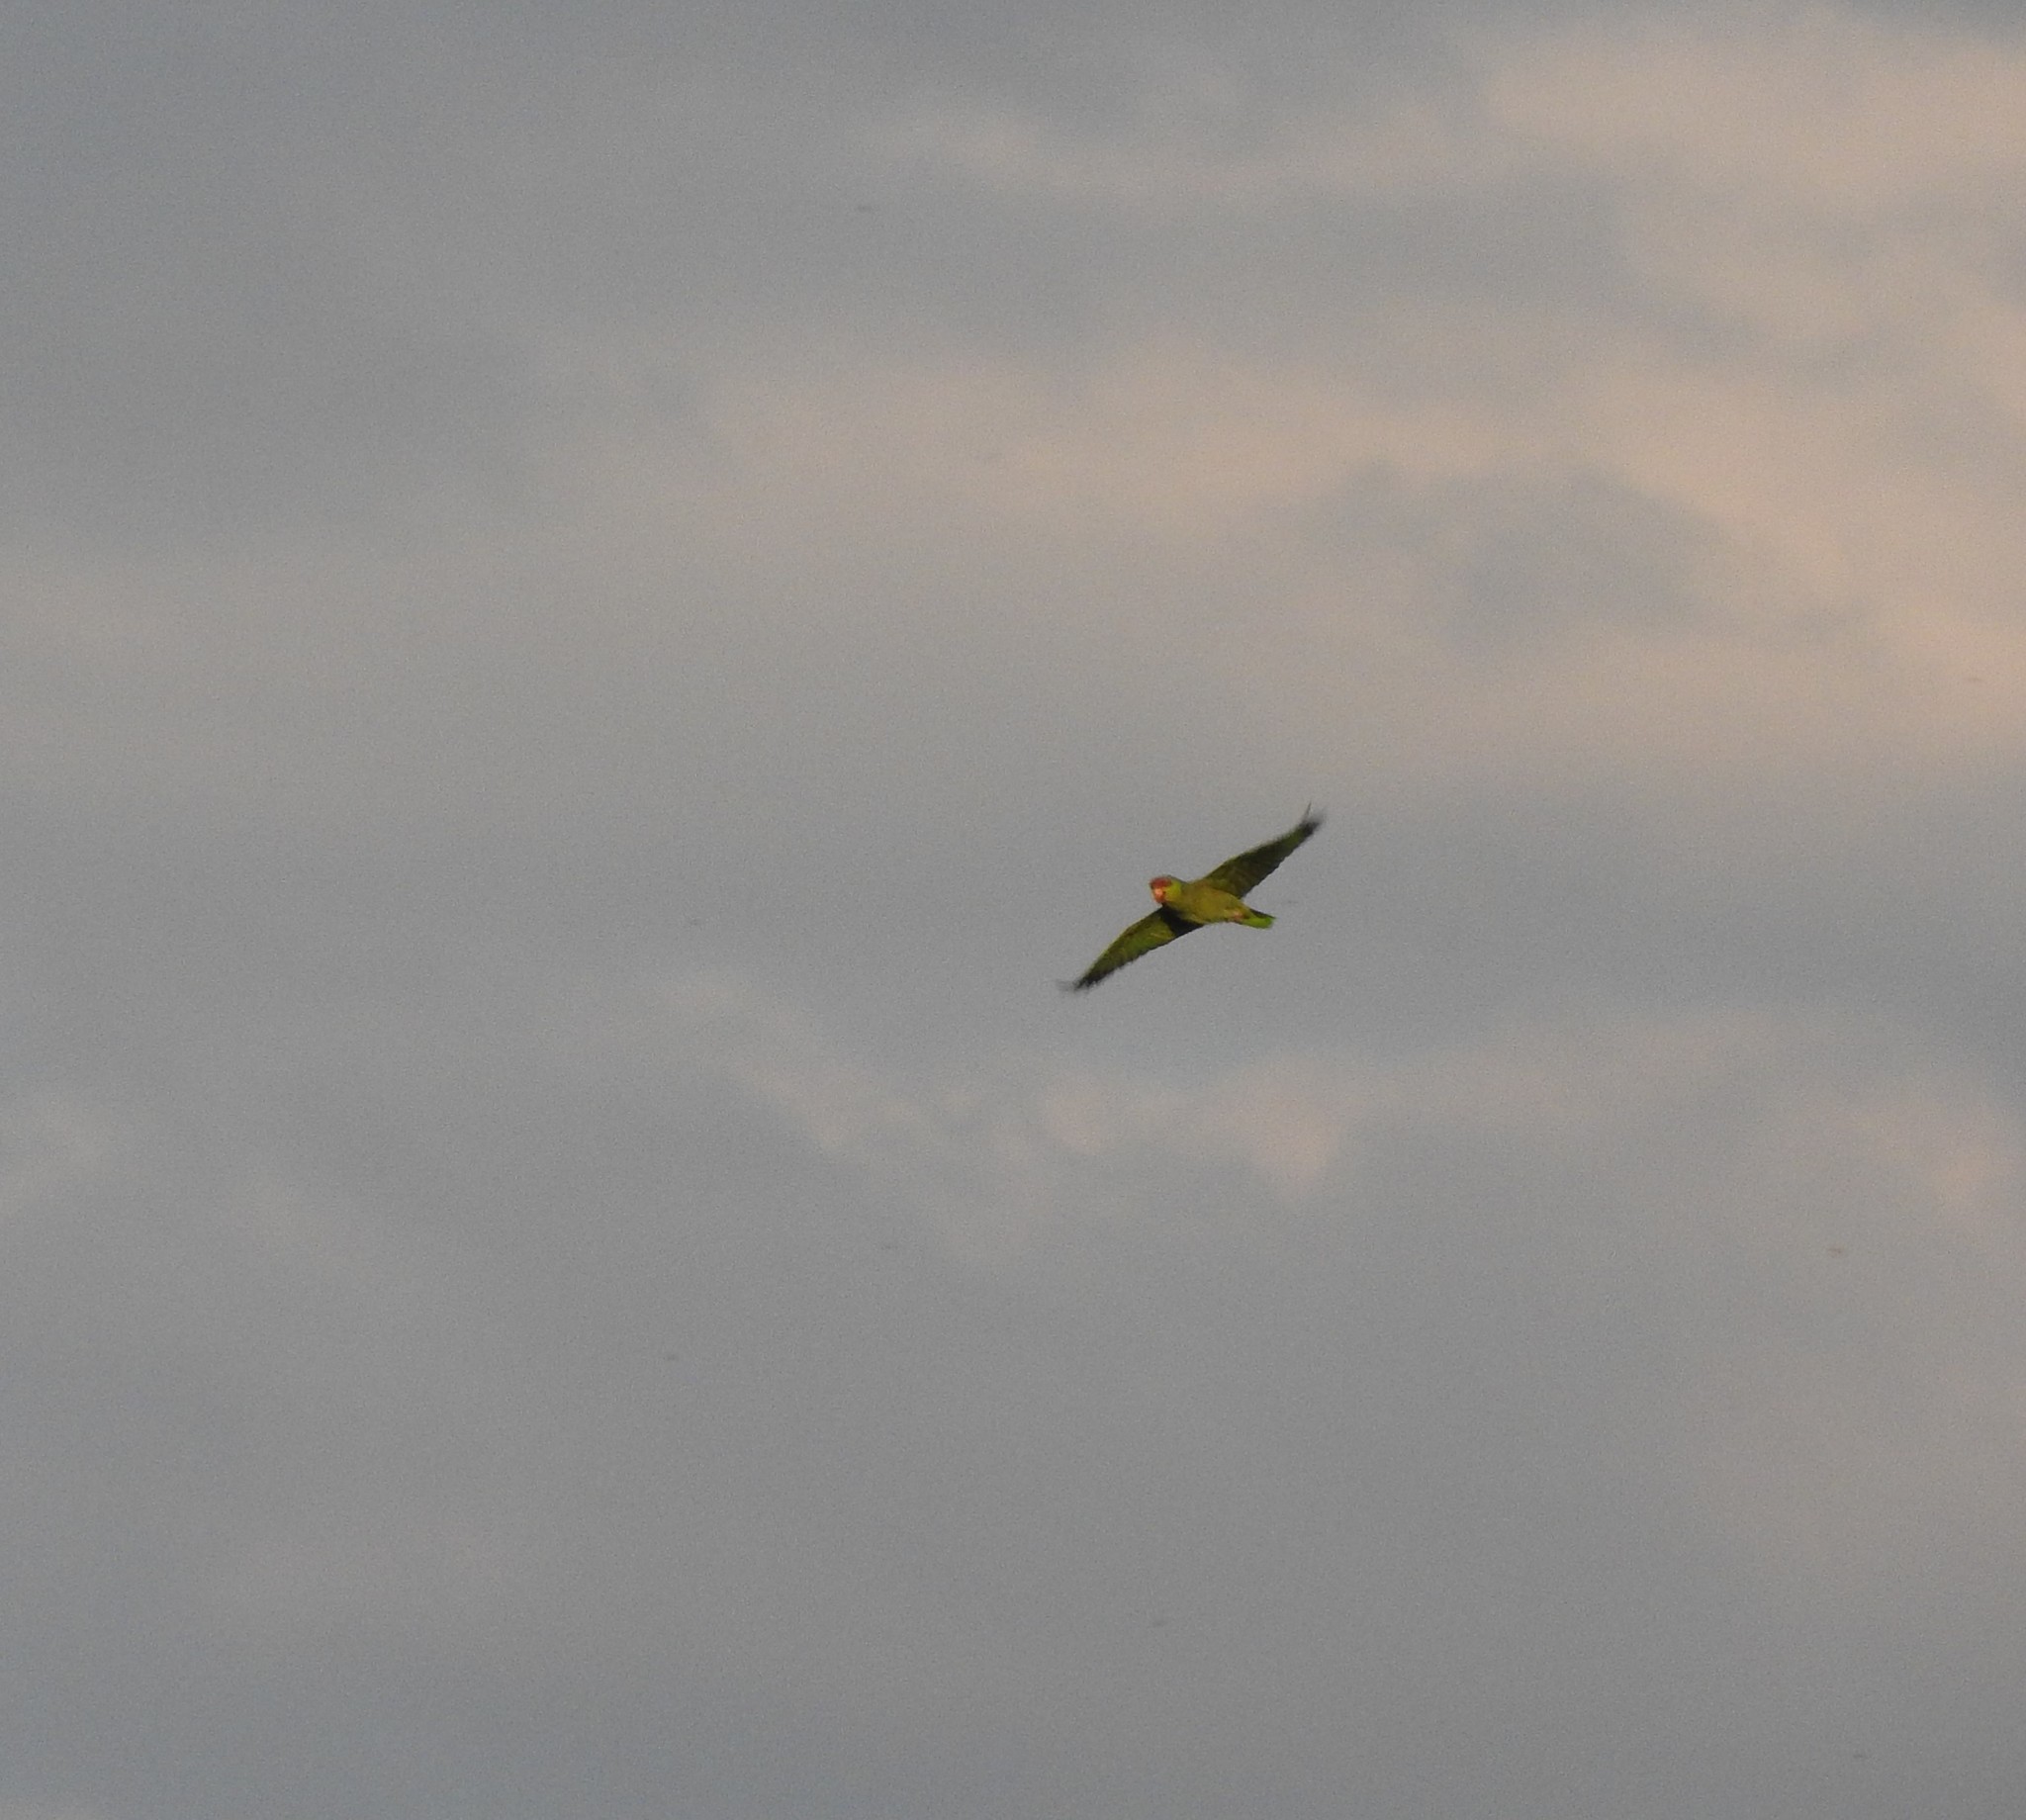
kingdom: Animalia
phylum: Chordata
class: Aves
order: Psittaciformes
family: Psittacidae
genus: Amazona
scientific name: Amazona finschi
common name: Lilac-crowned amazon
